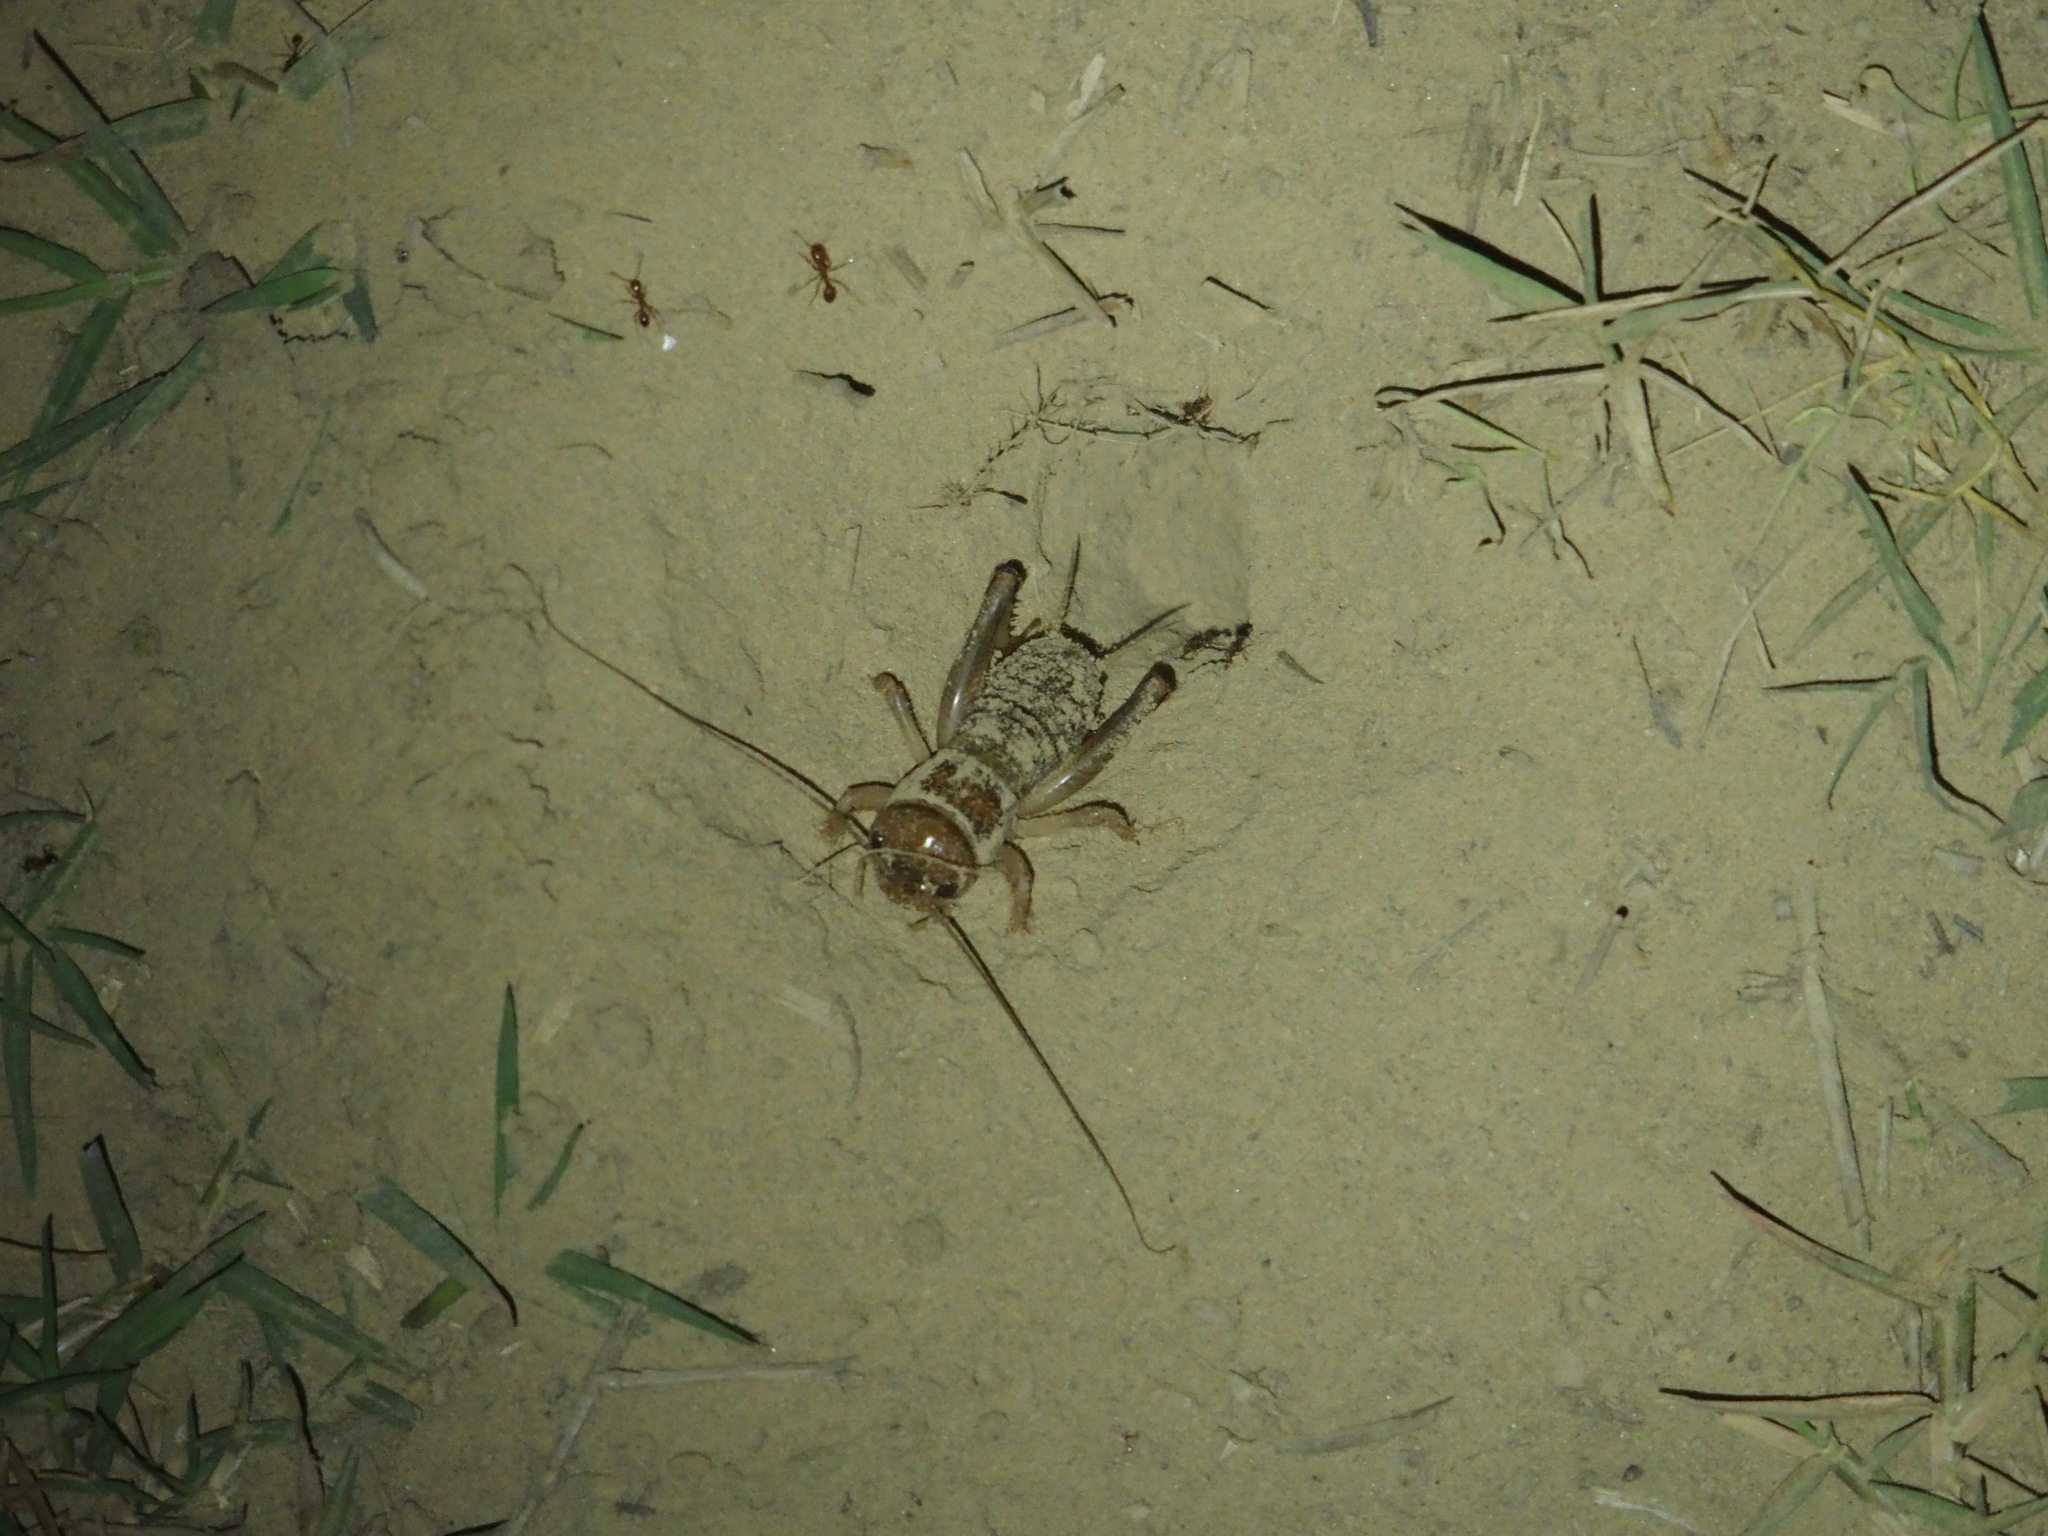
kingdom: Animalia
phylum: Arthropoda
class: Insecta
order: Orthoptera
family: Gryllidae
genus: Tarbinskiellus
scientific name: Tarbinskiellus portentosus
